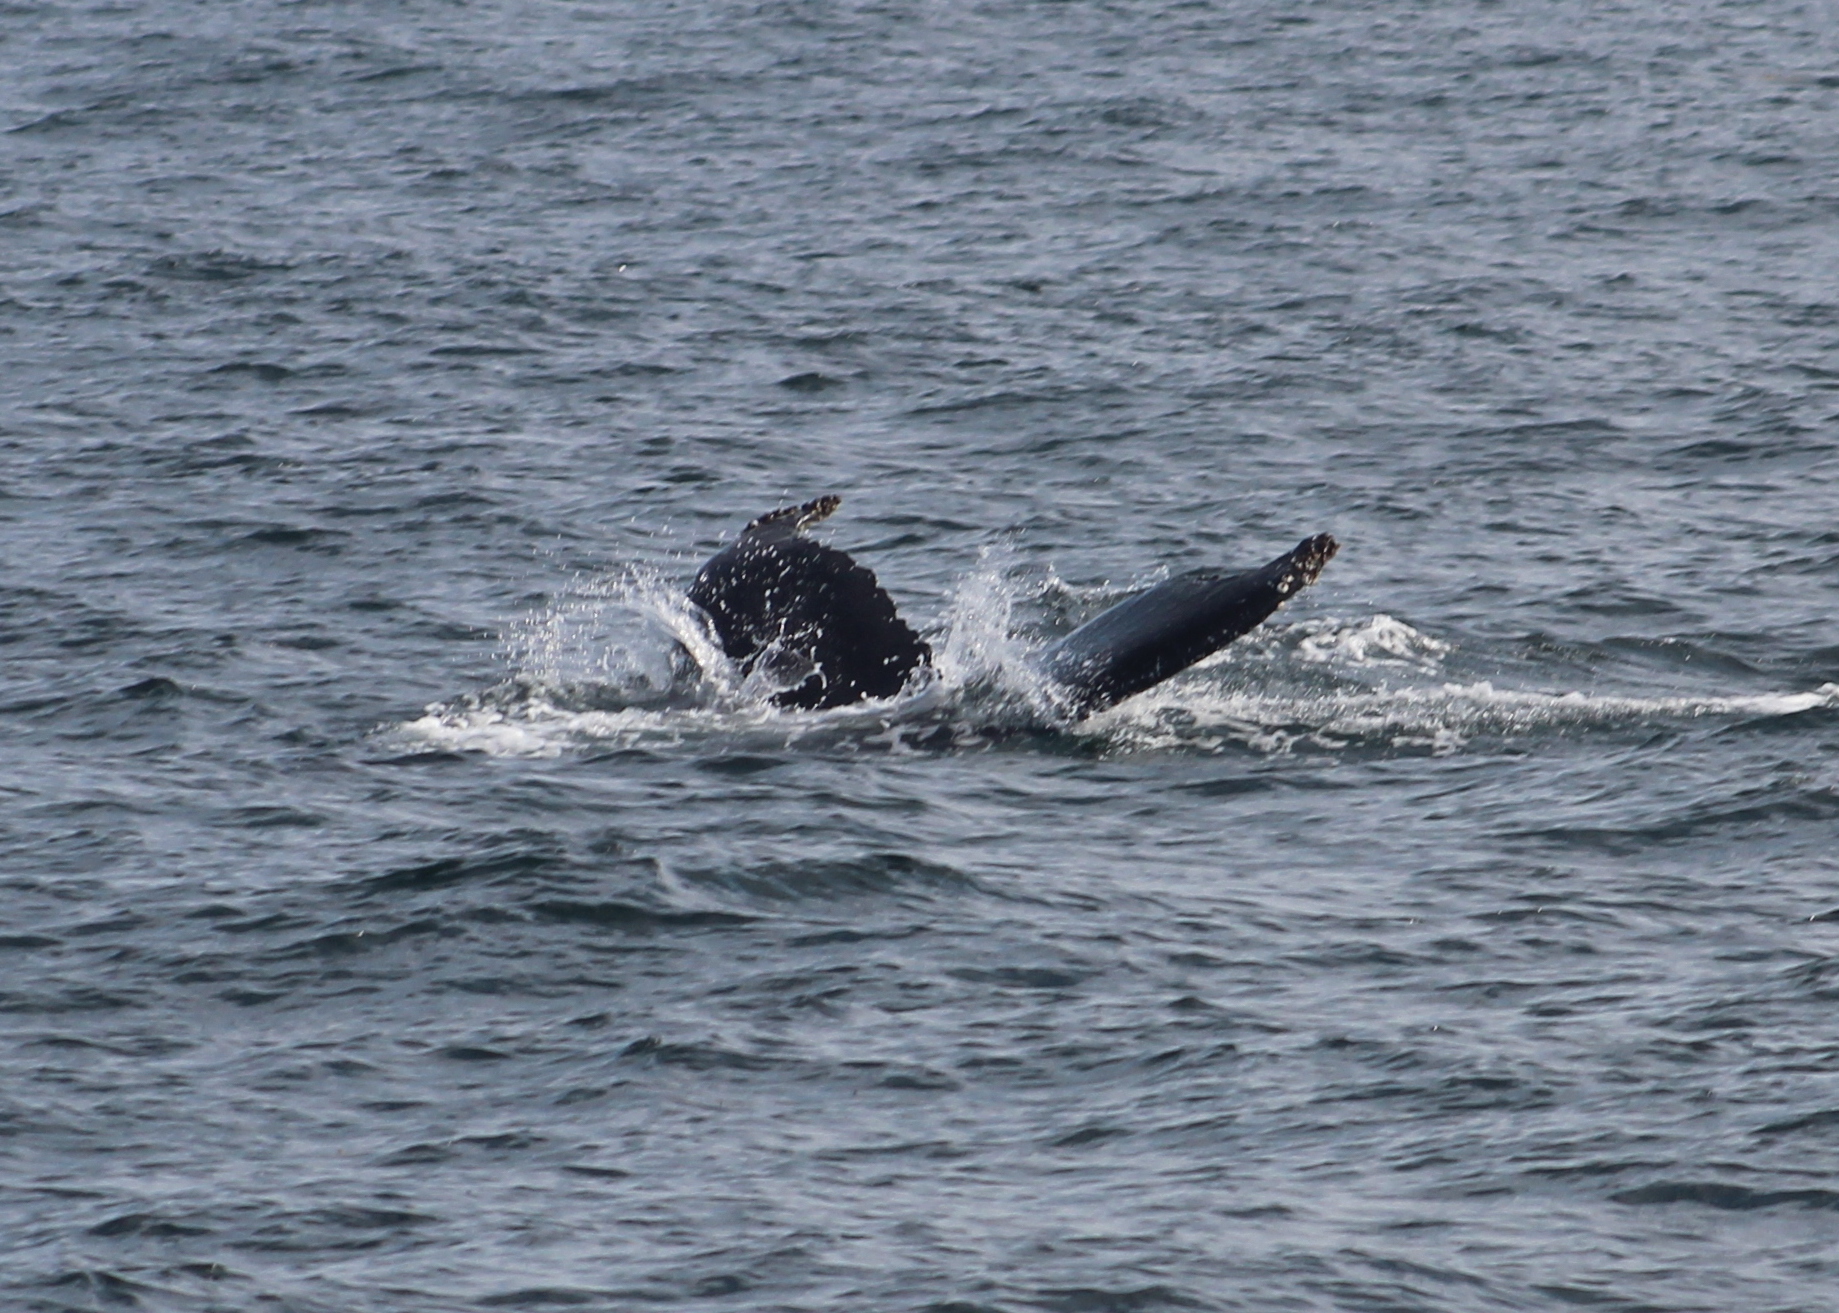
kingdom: Animalia
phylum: Chordata
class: Mammalia
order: Cetacea
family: Balaenopteridae
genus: Megaptera
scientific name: Megaptera novaeangliae
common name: Humpback whale
